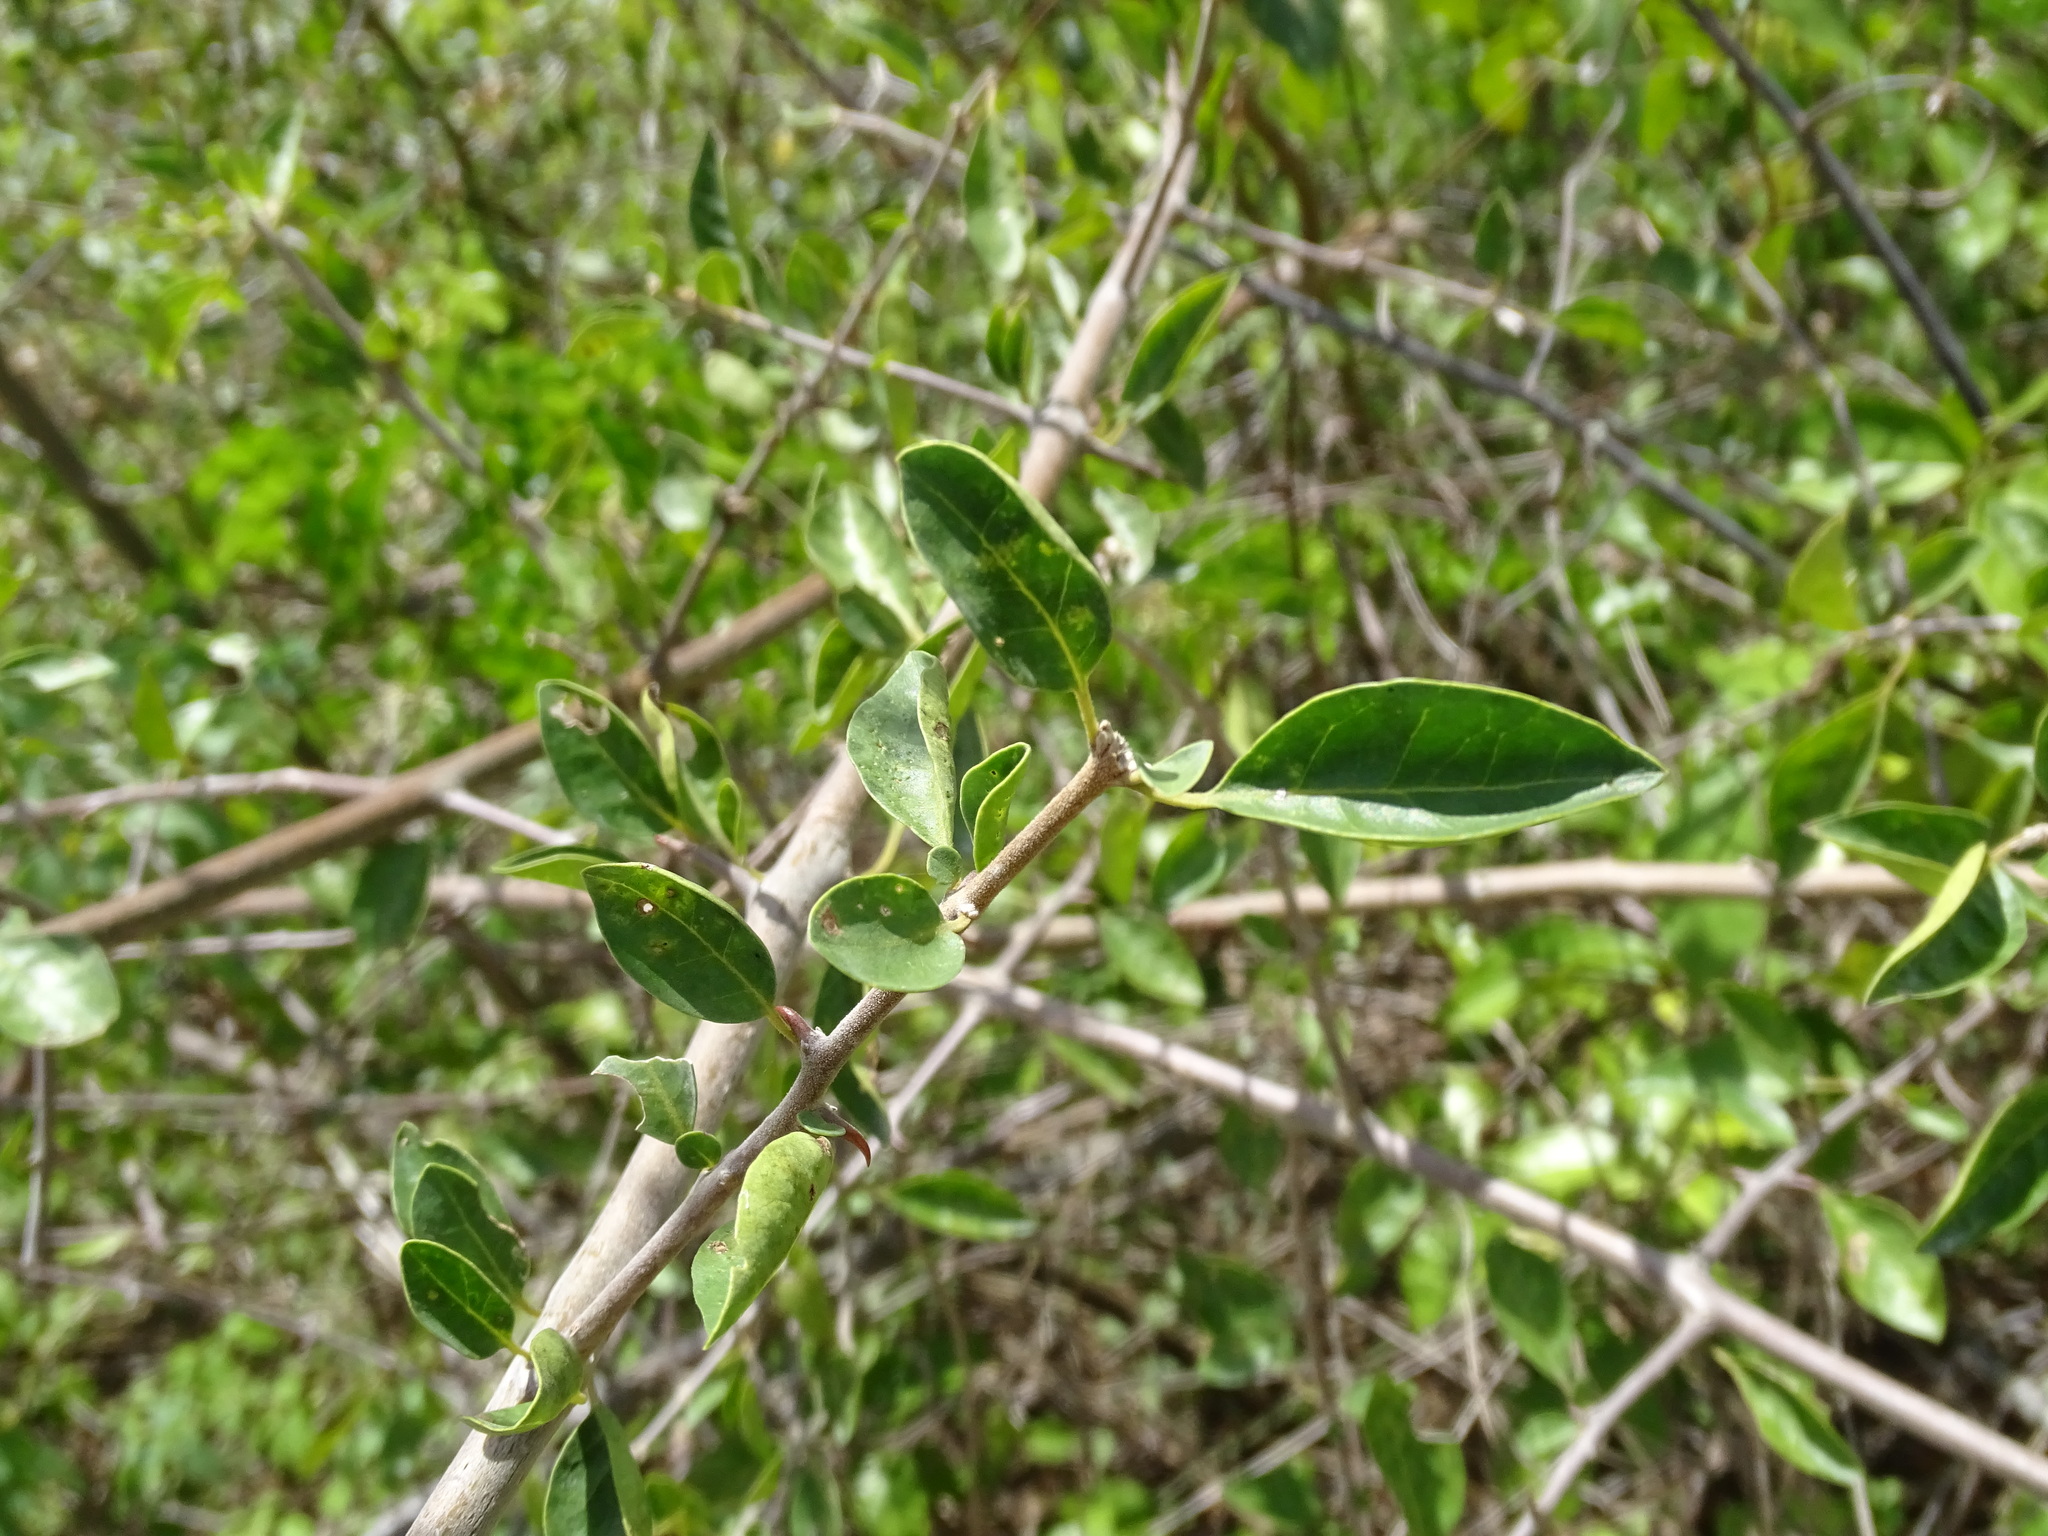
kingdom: Plantae
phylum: Tracheophyta
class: Magnoliopsida
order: Caryophyllales
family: Nyctaginaceae
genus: Pisonia
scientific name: Pisonia aculeata
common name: Cockspur vine
